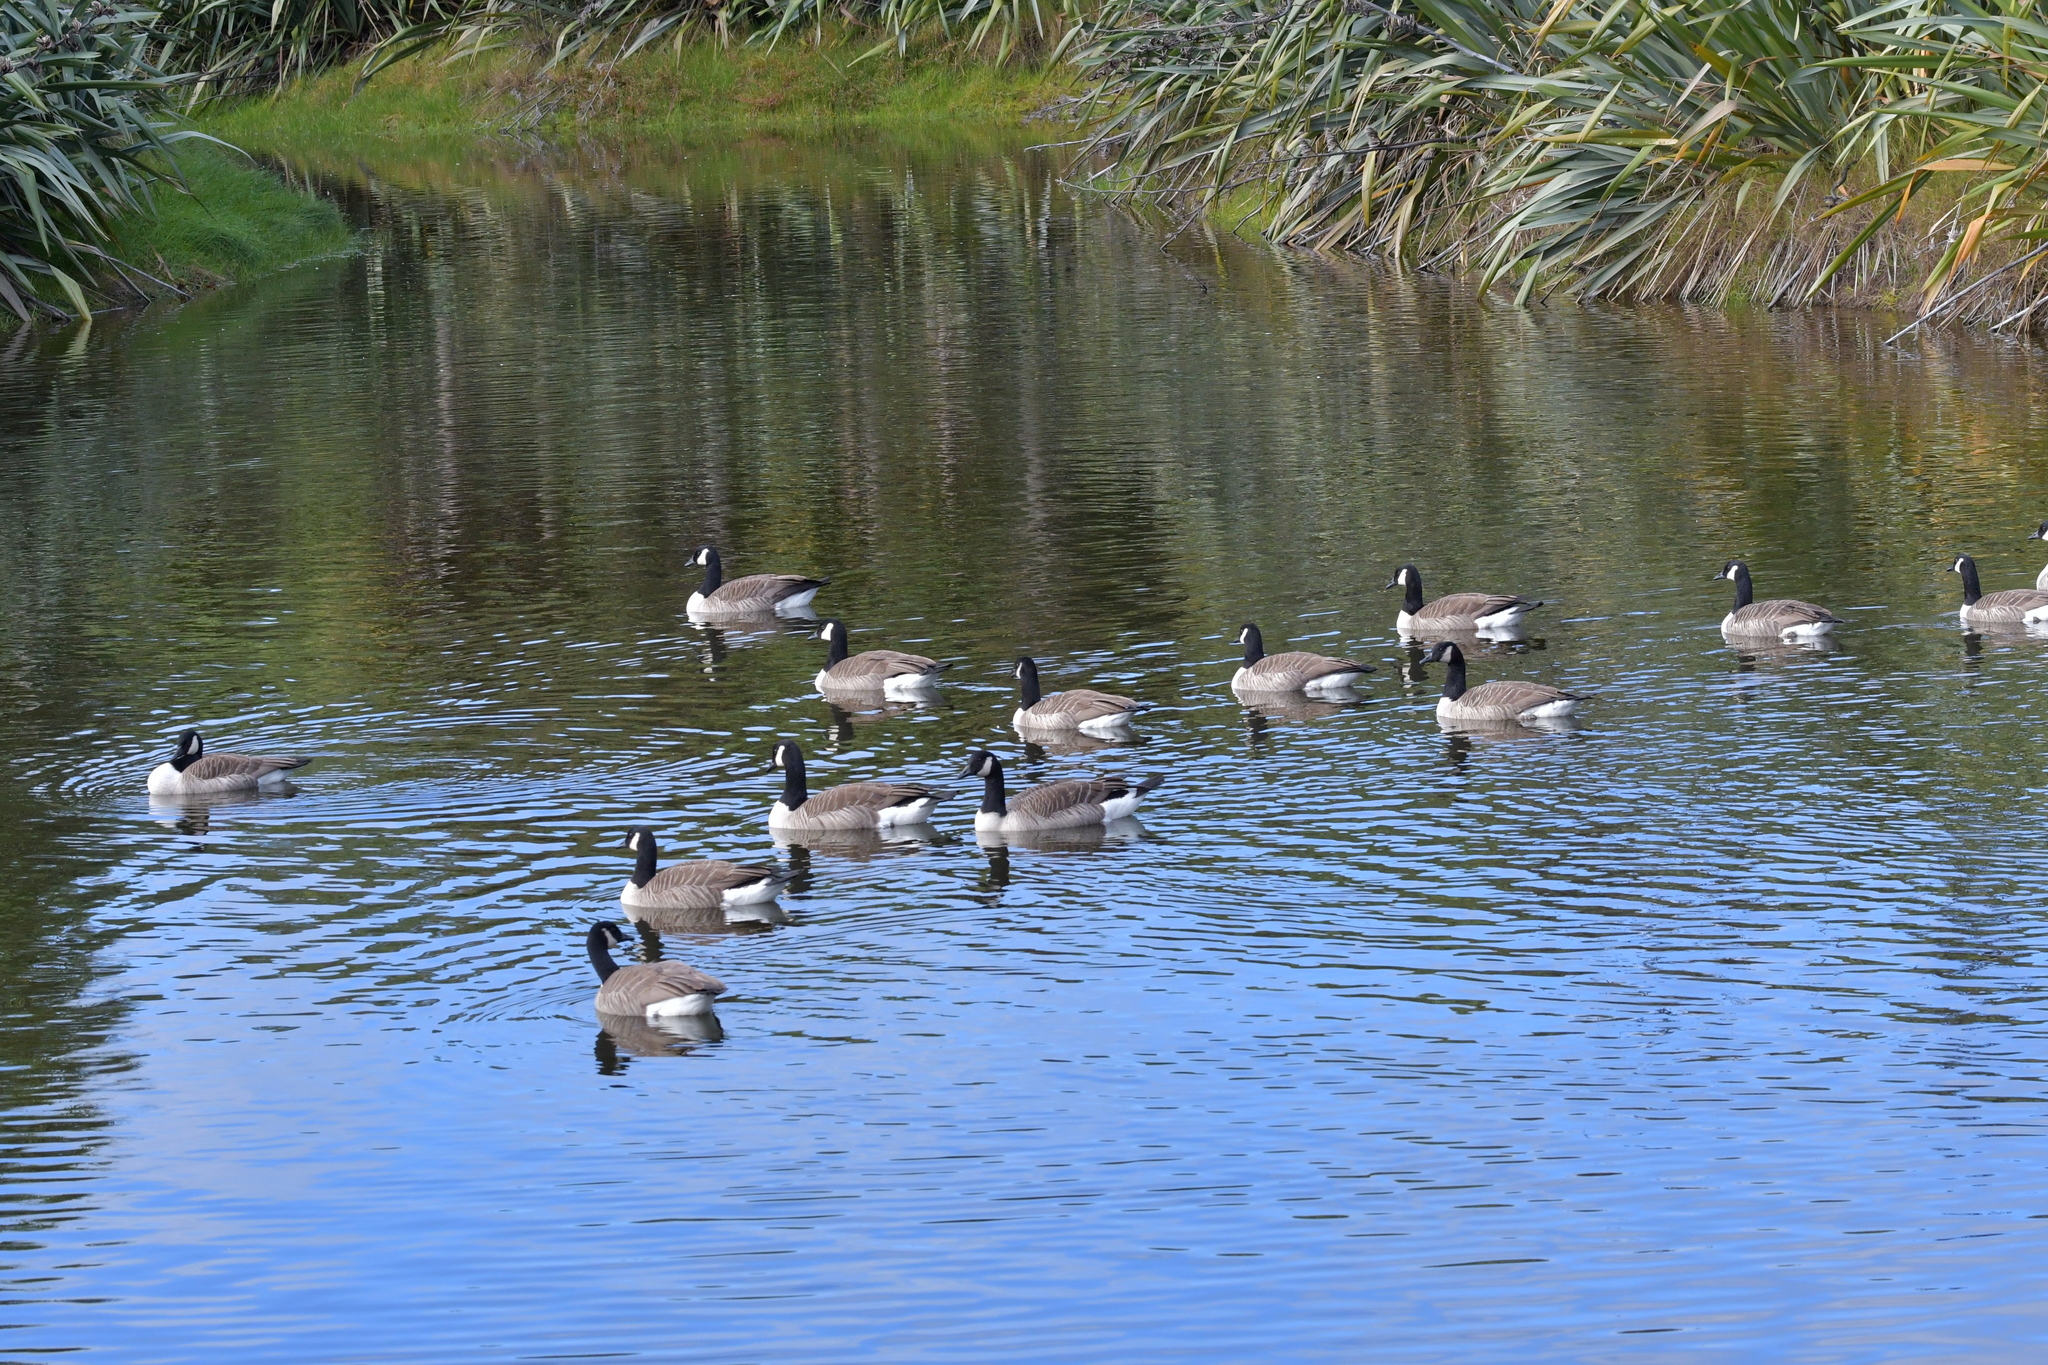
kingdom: Animalia
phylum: Chordata
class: Aves
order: Anseriformes
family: Anatidae
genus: Branta
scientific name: Branta canadensis
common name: Canada goose
